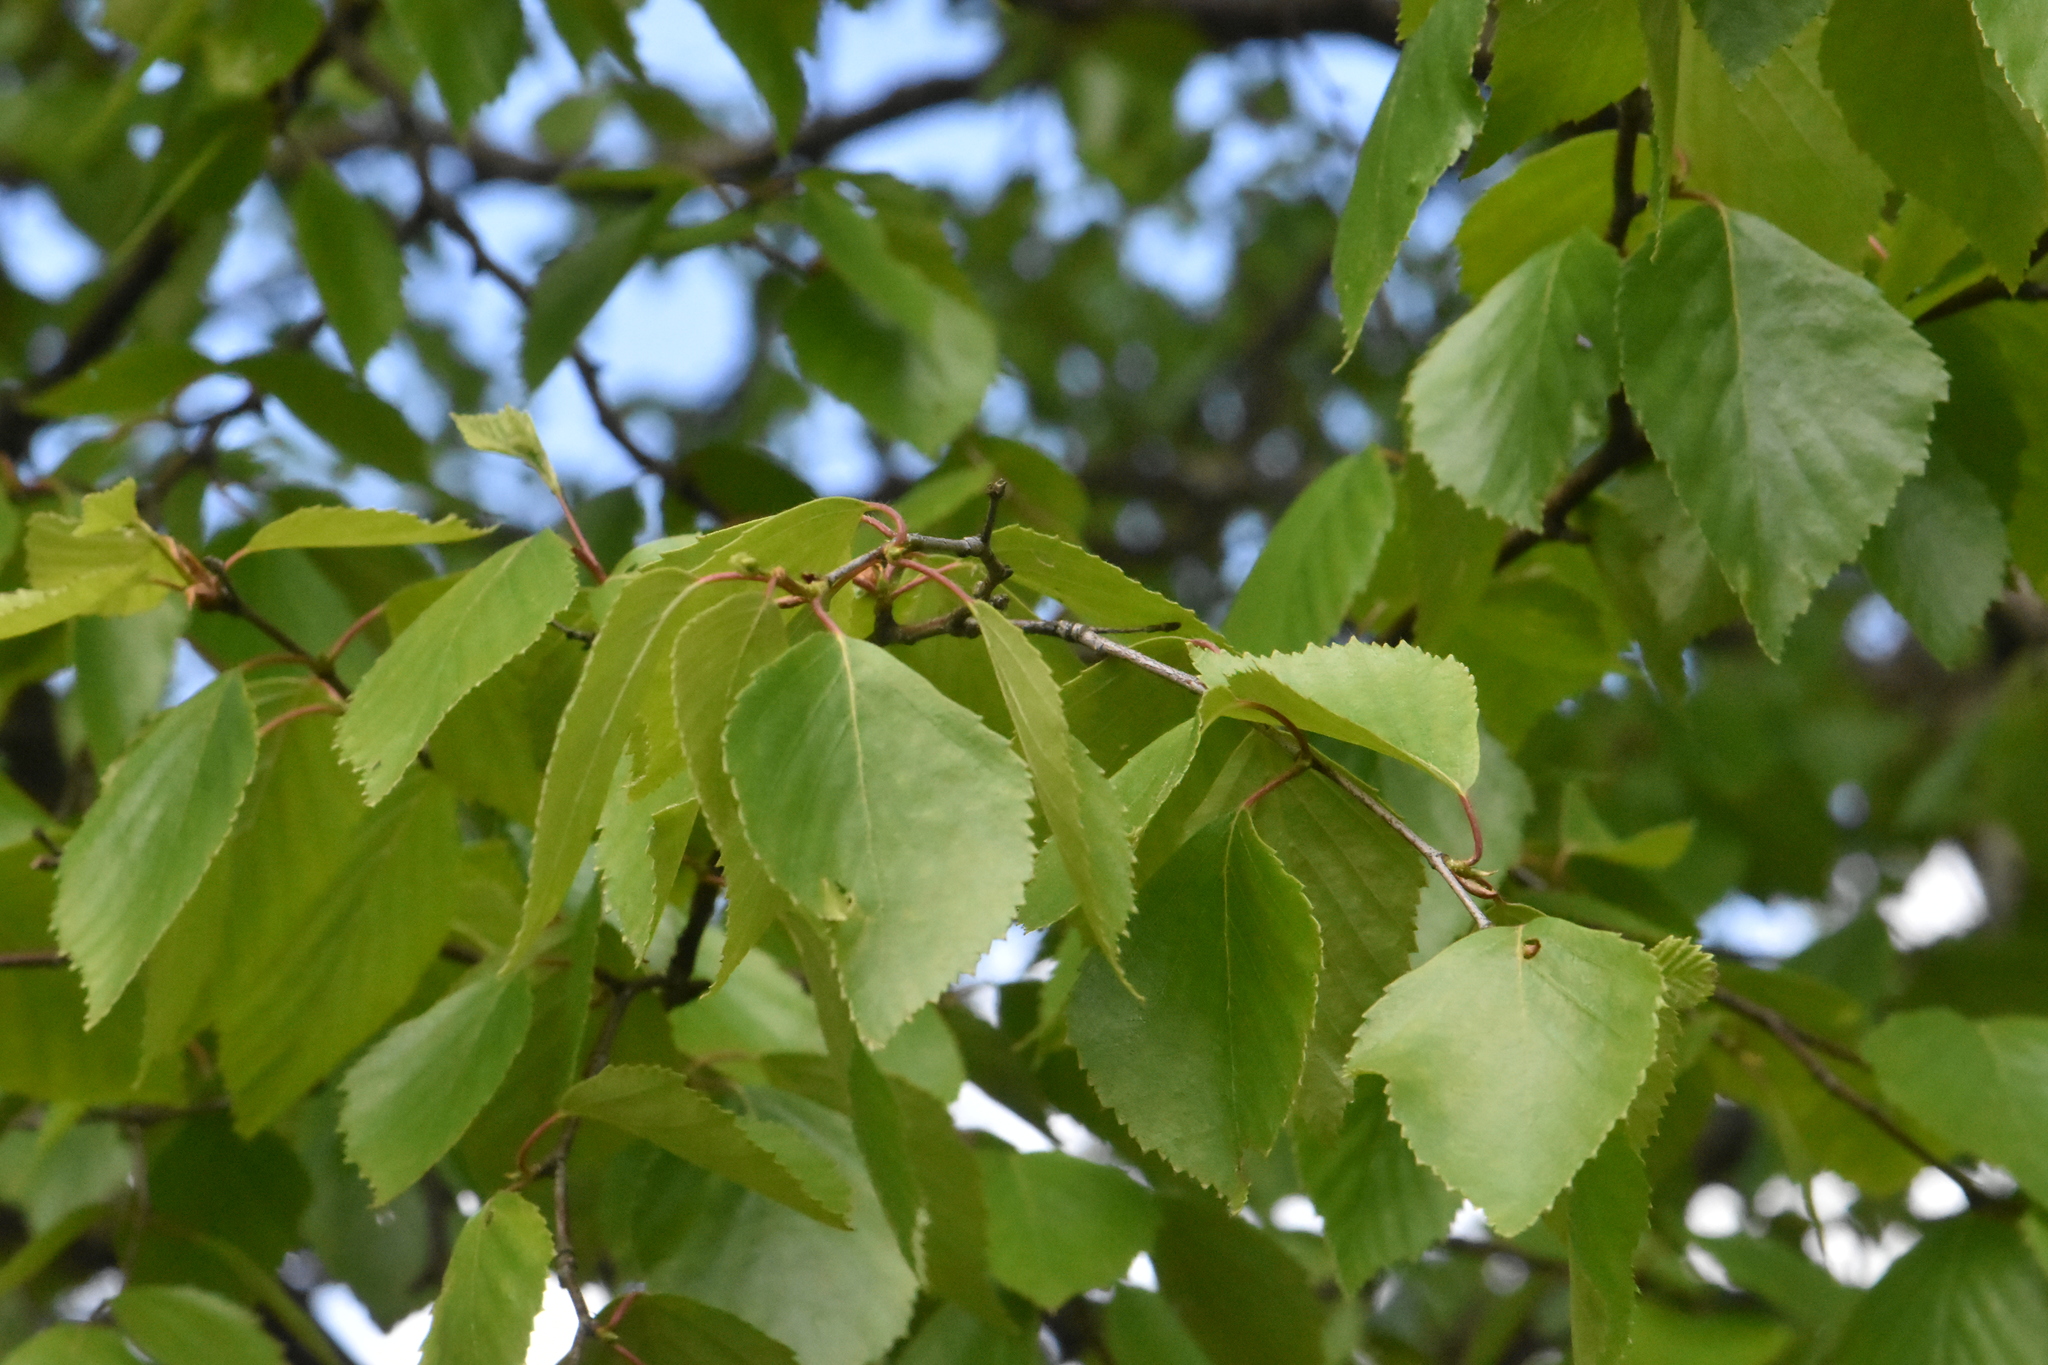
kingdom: Plantae
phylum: Tracheophyta
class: Magnoliopsida
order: Fagales
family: Betulaceae
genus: Betula
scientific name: Betula pendula
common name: Silver birch
